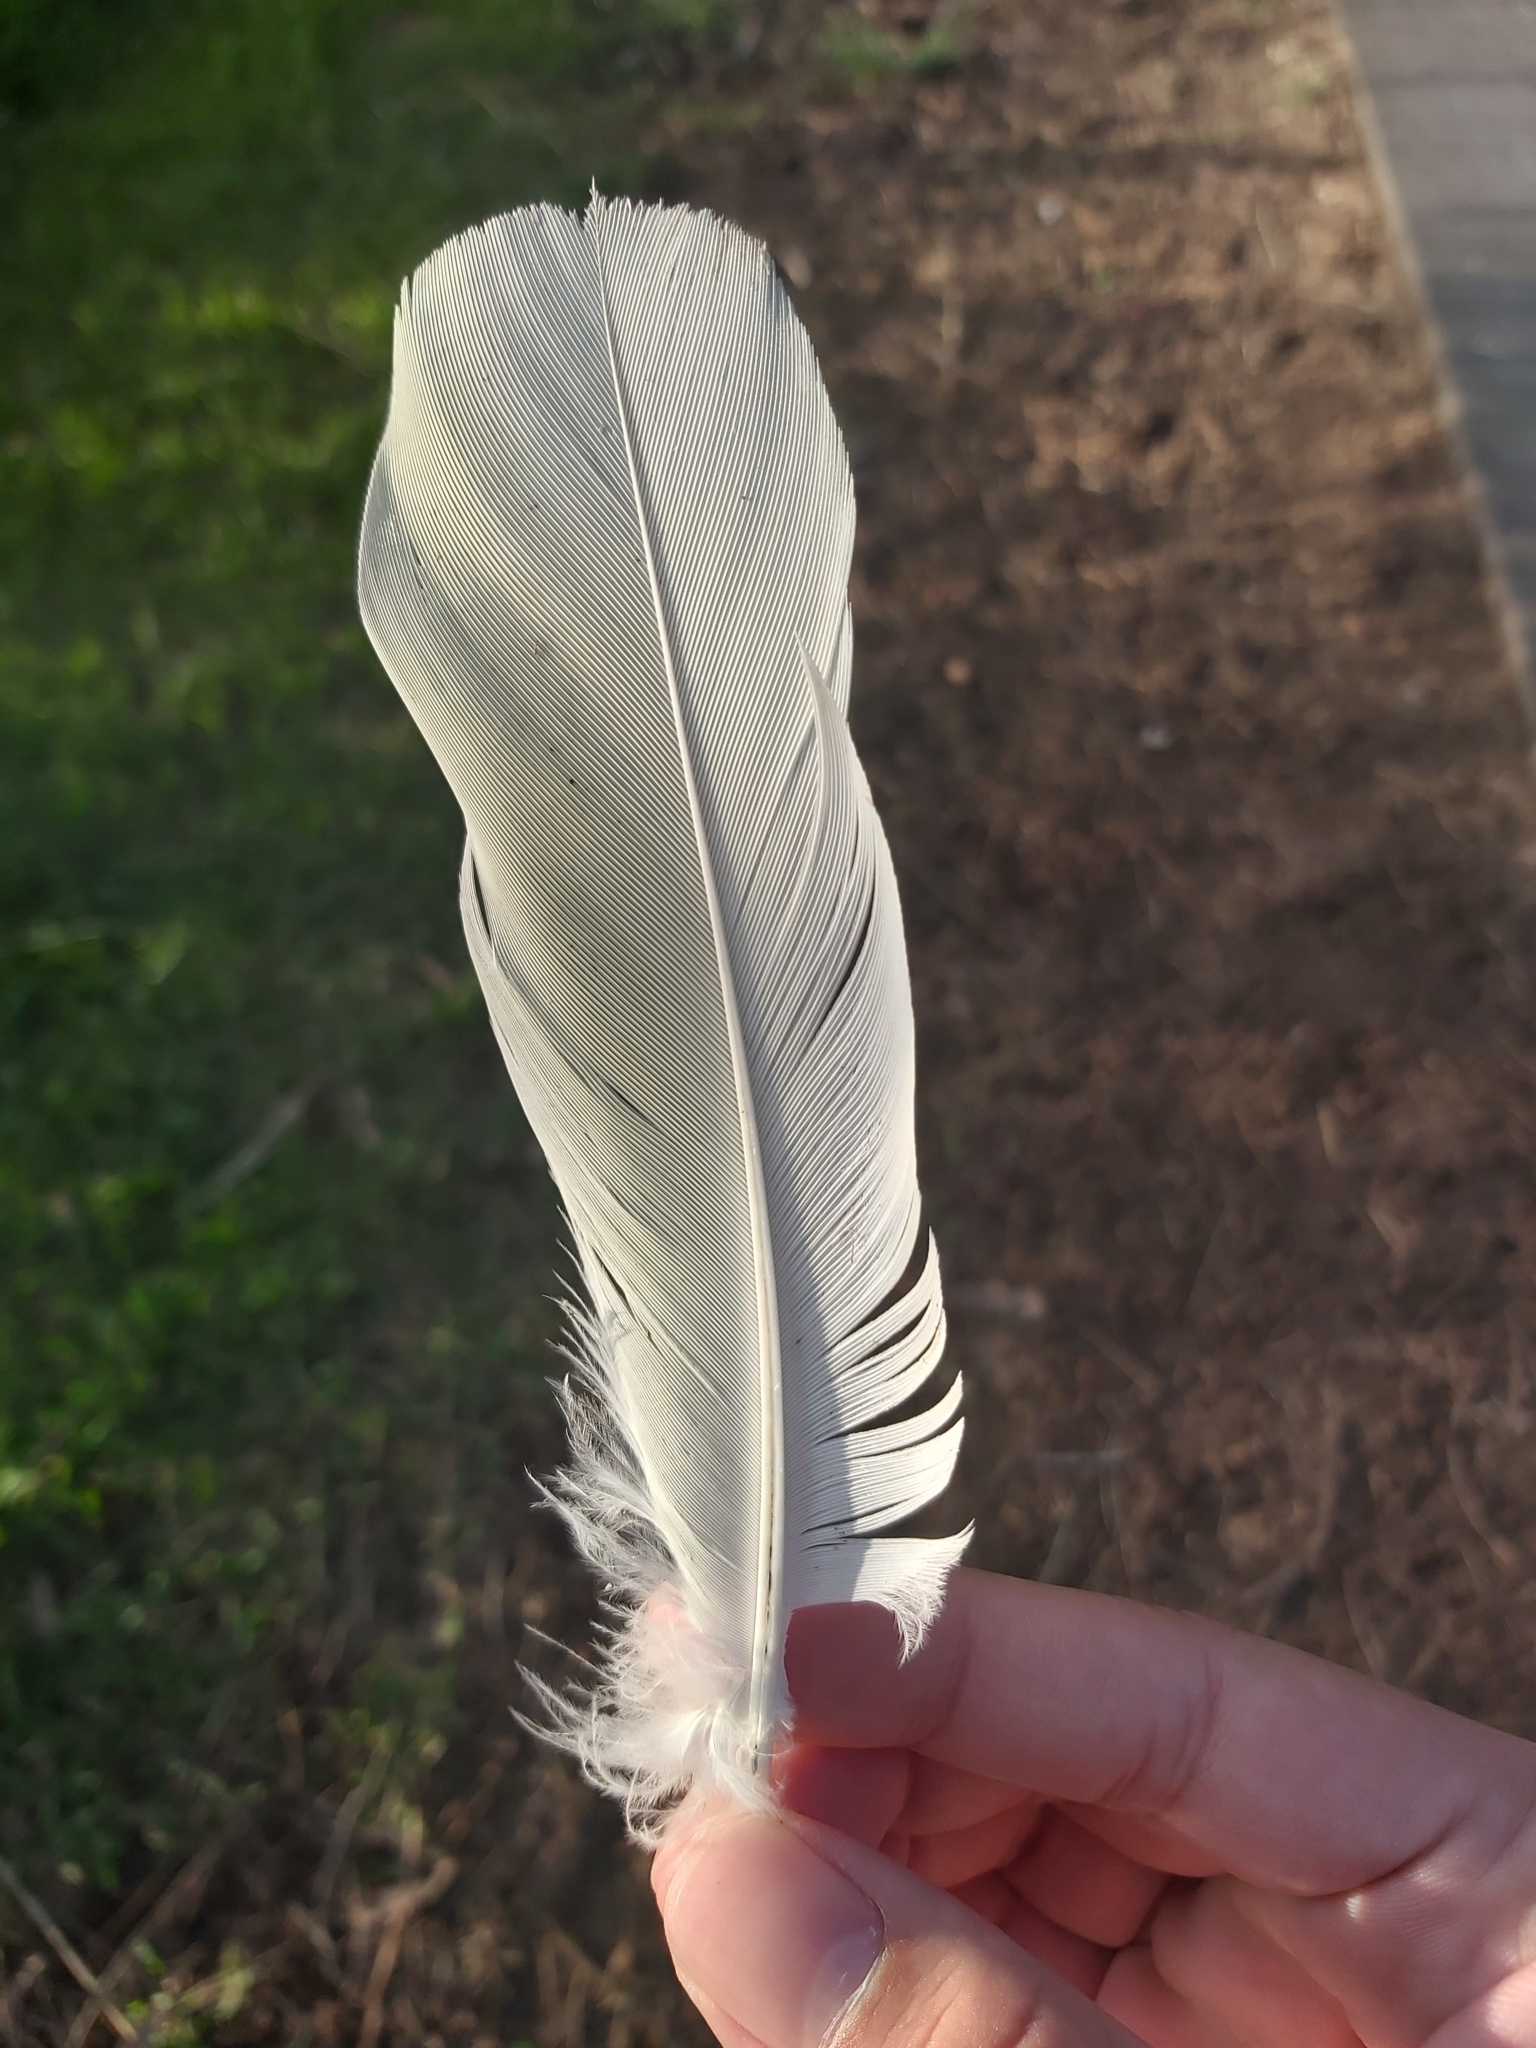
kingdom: Animalia
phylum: Chordata
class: Aves
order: Psittaciformes
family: Psittacidae
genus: Cacatua
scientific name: Cacatua galerita
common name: Sulphur-crested cockatoo
